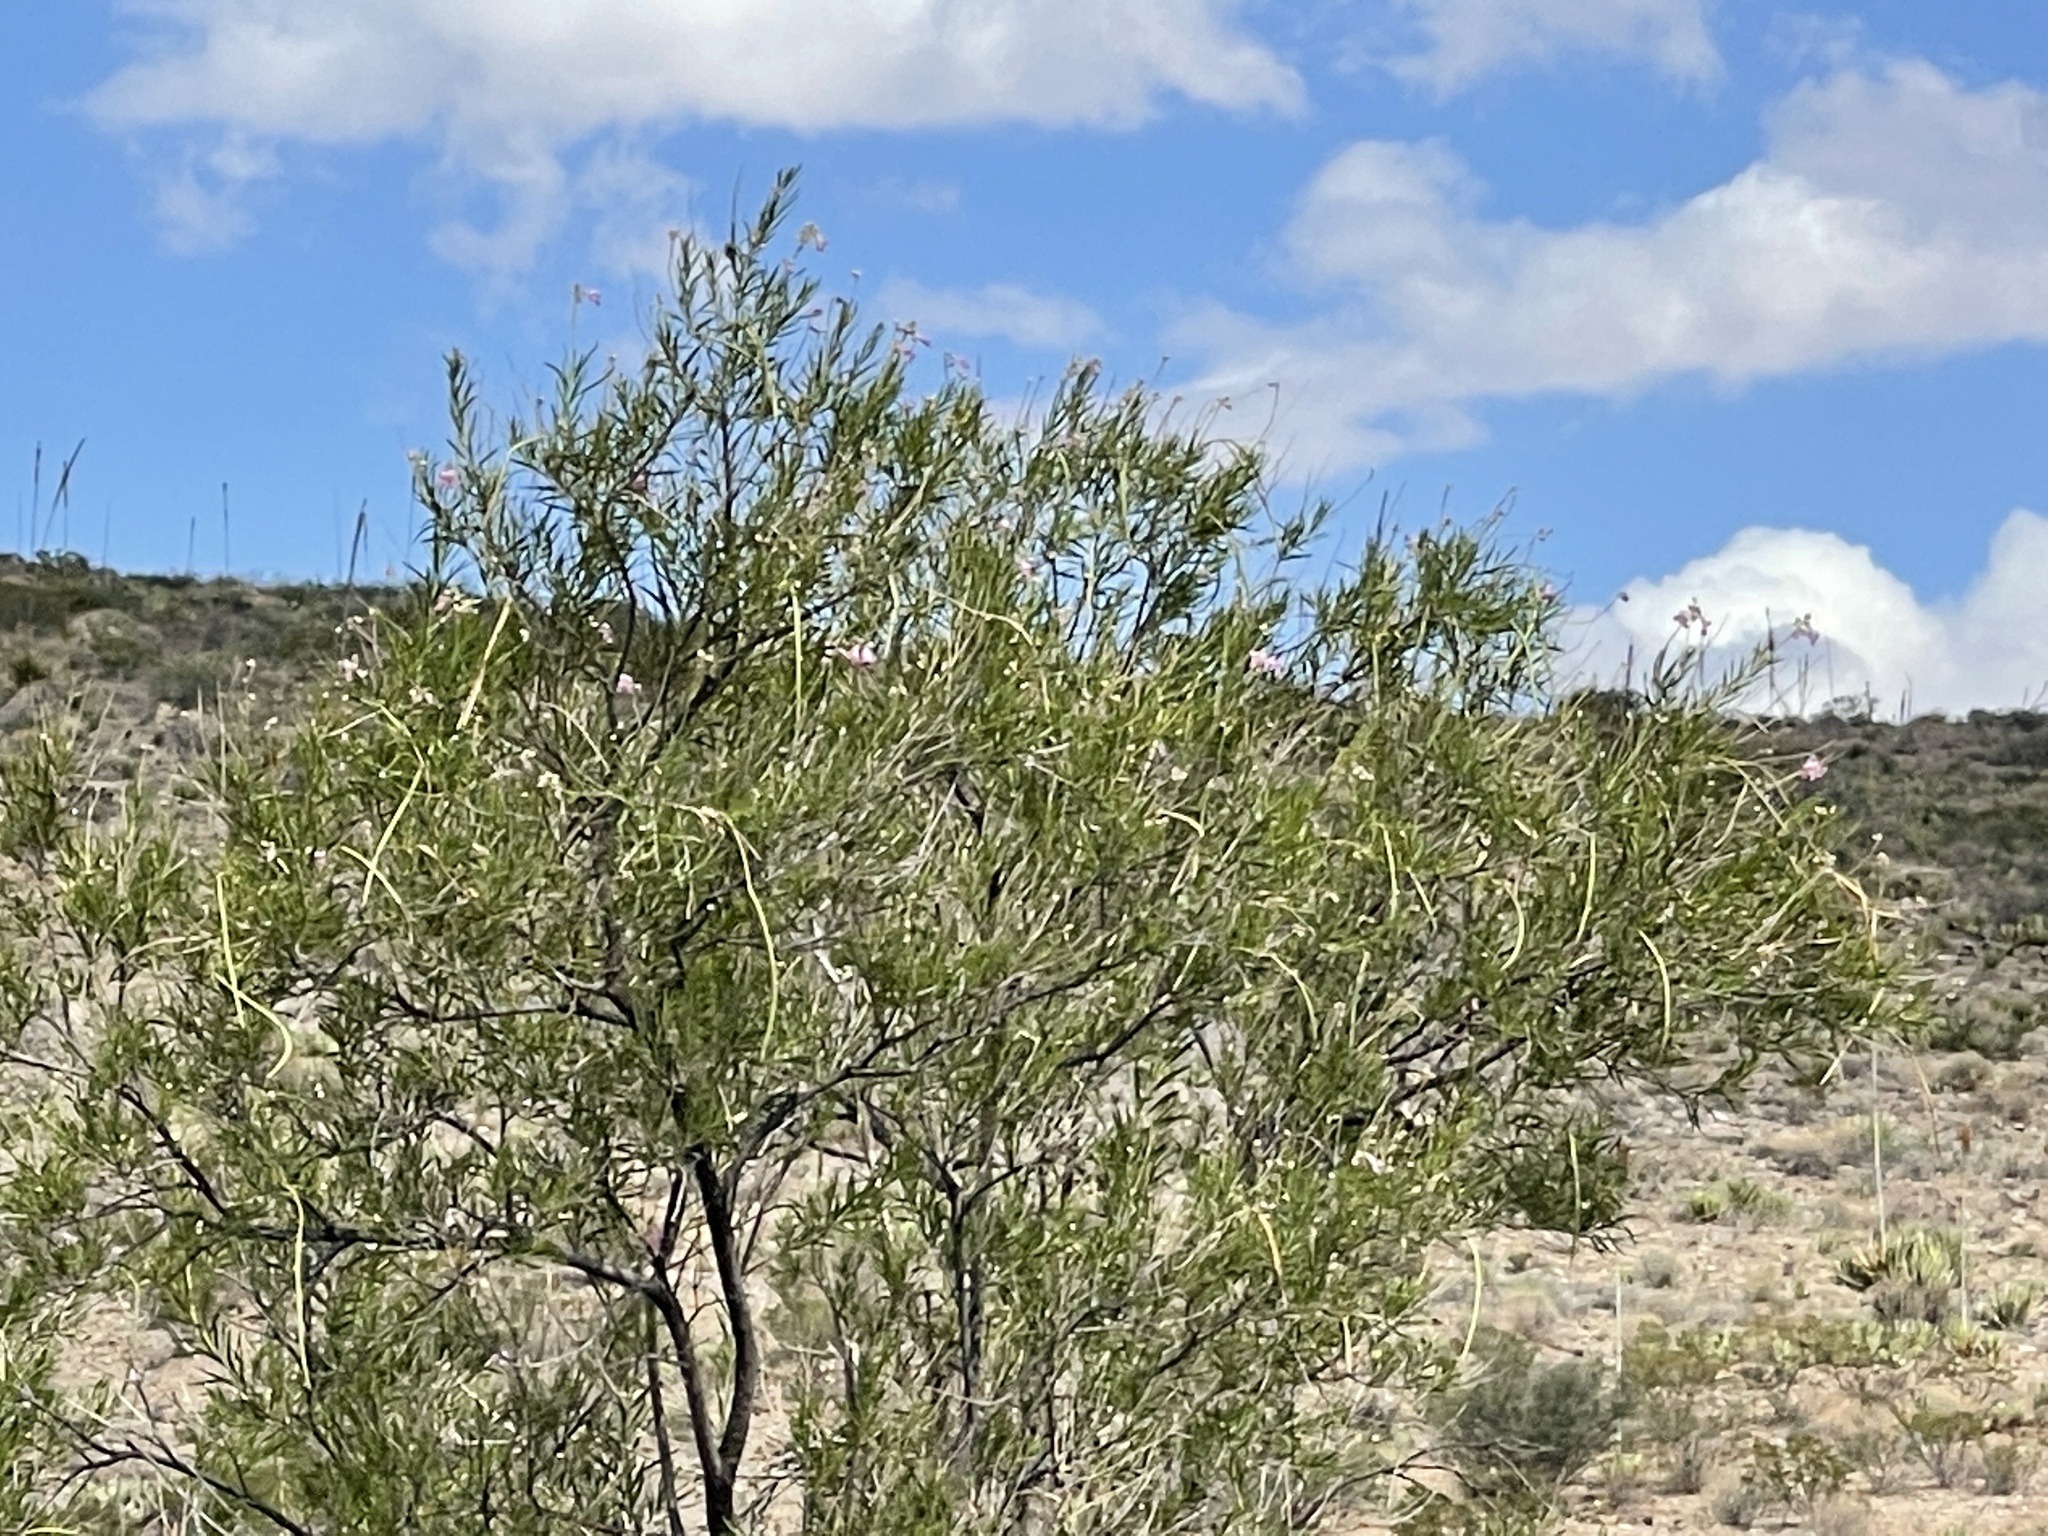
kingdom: Plantae
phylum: Tracheophyta
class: Magnoliopsida
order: Lamiales
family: Bignoniaceae
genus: Chilopsis
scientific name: Chilopsis linearis
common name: Desert-willow
